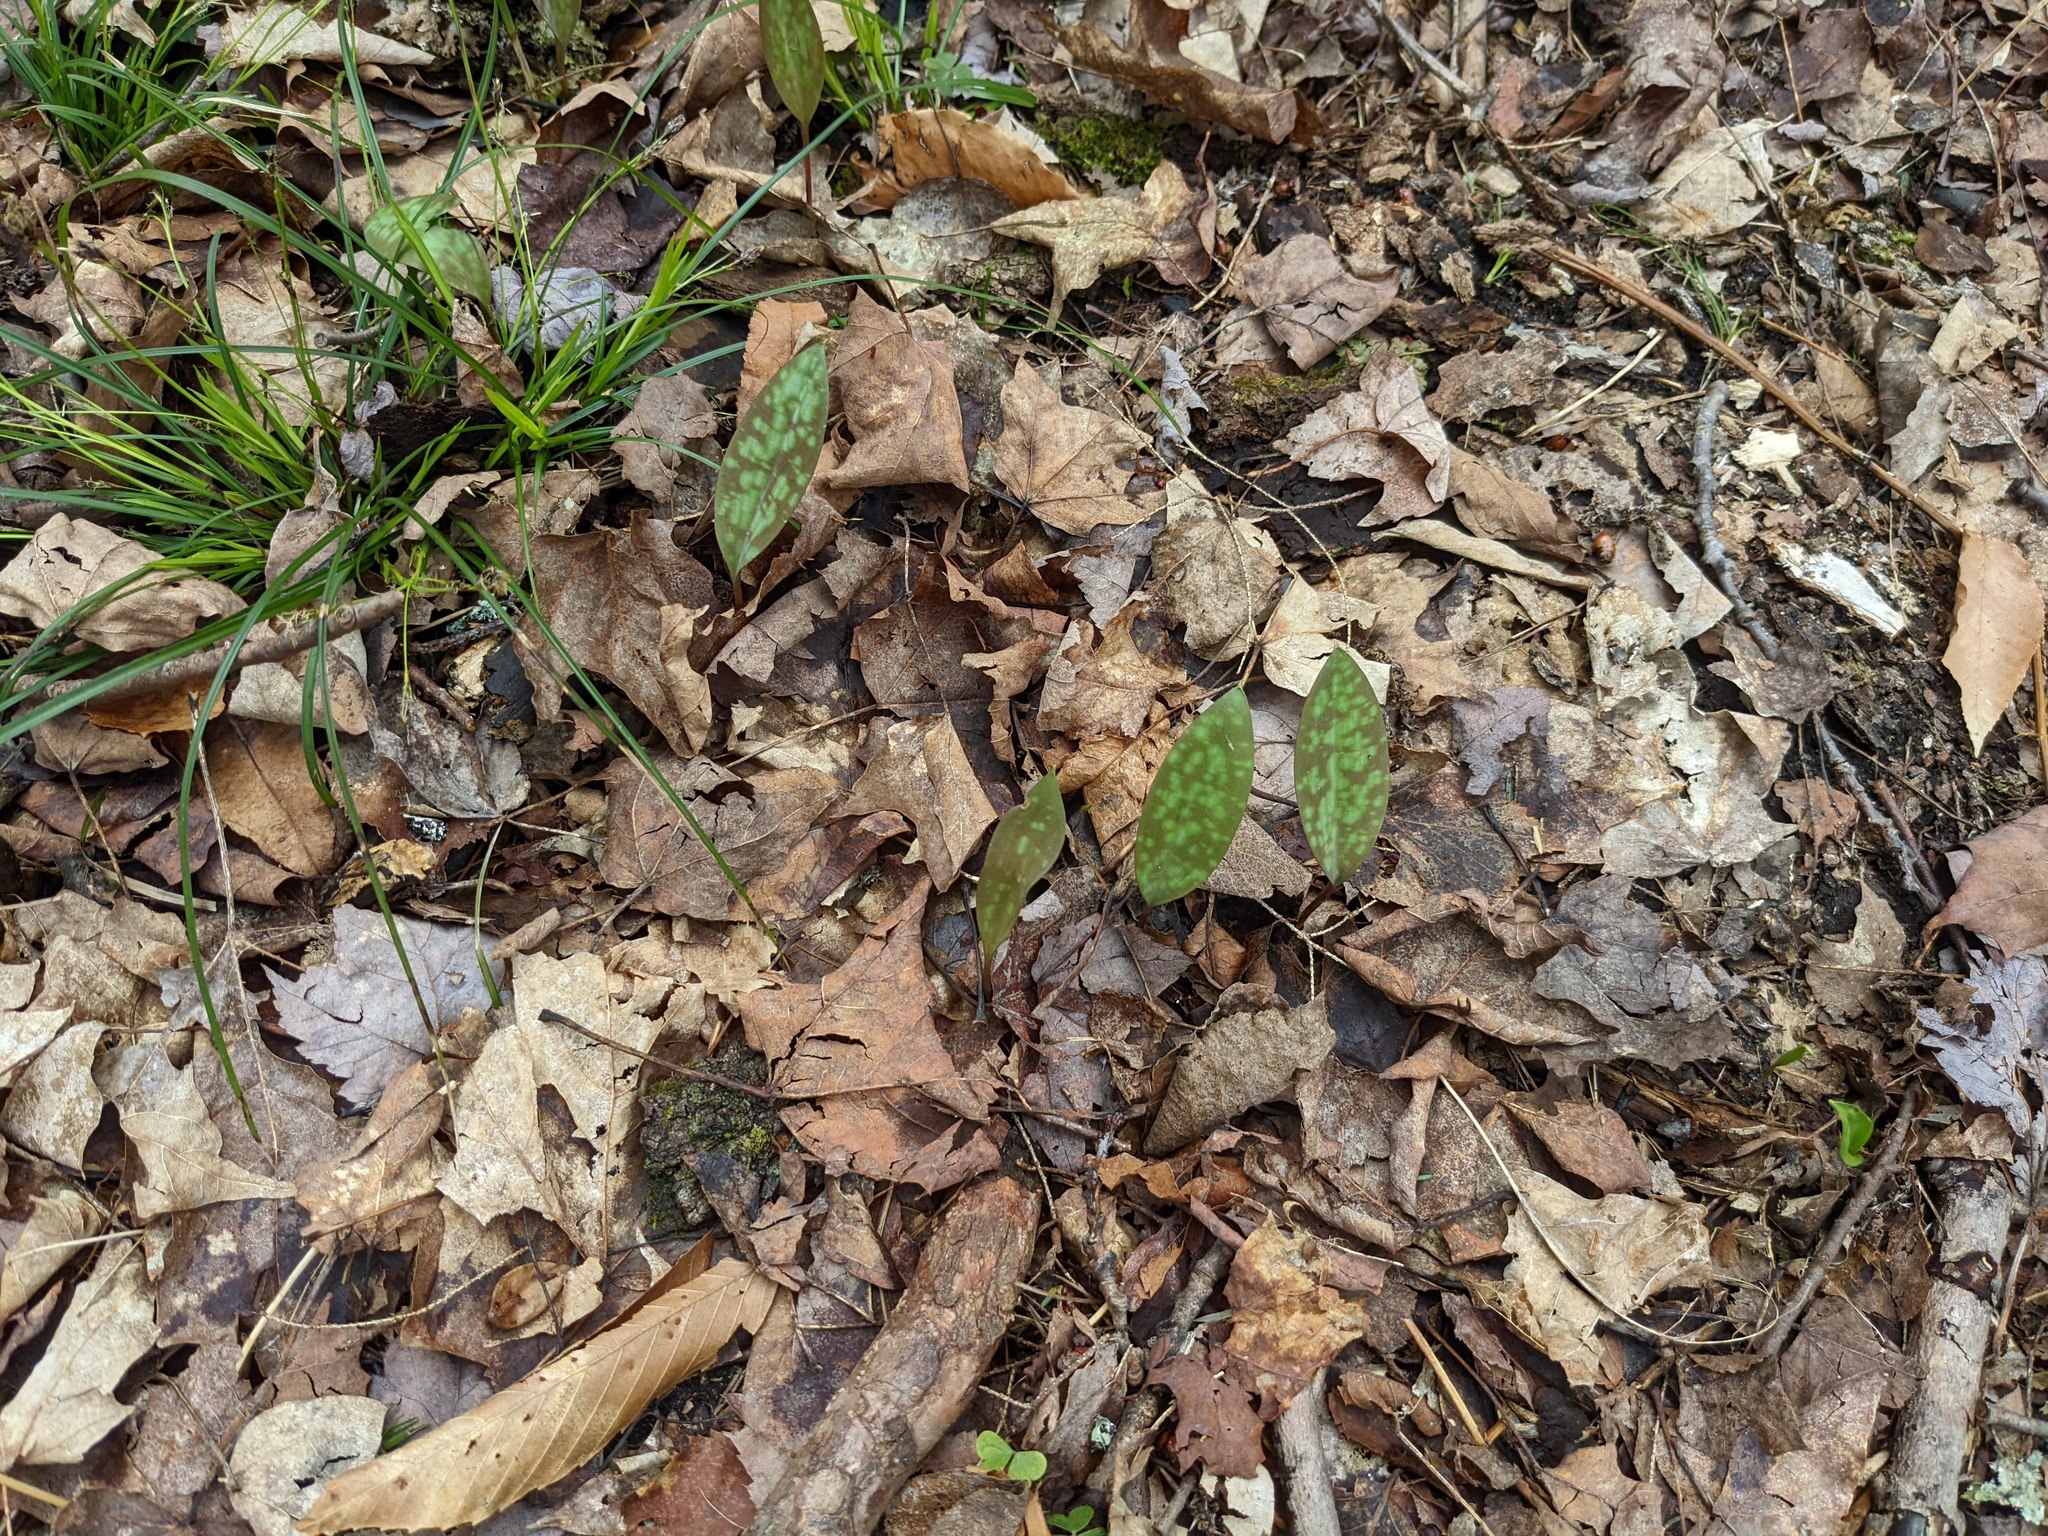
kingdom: Plantae
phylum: Tracheophyta
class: Liliopsida
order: Liliales
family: Liliaceae
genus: Erythronium
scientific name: Erythronium americanum
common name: Yellow adder's-tongue
